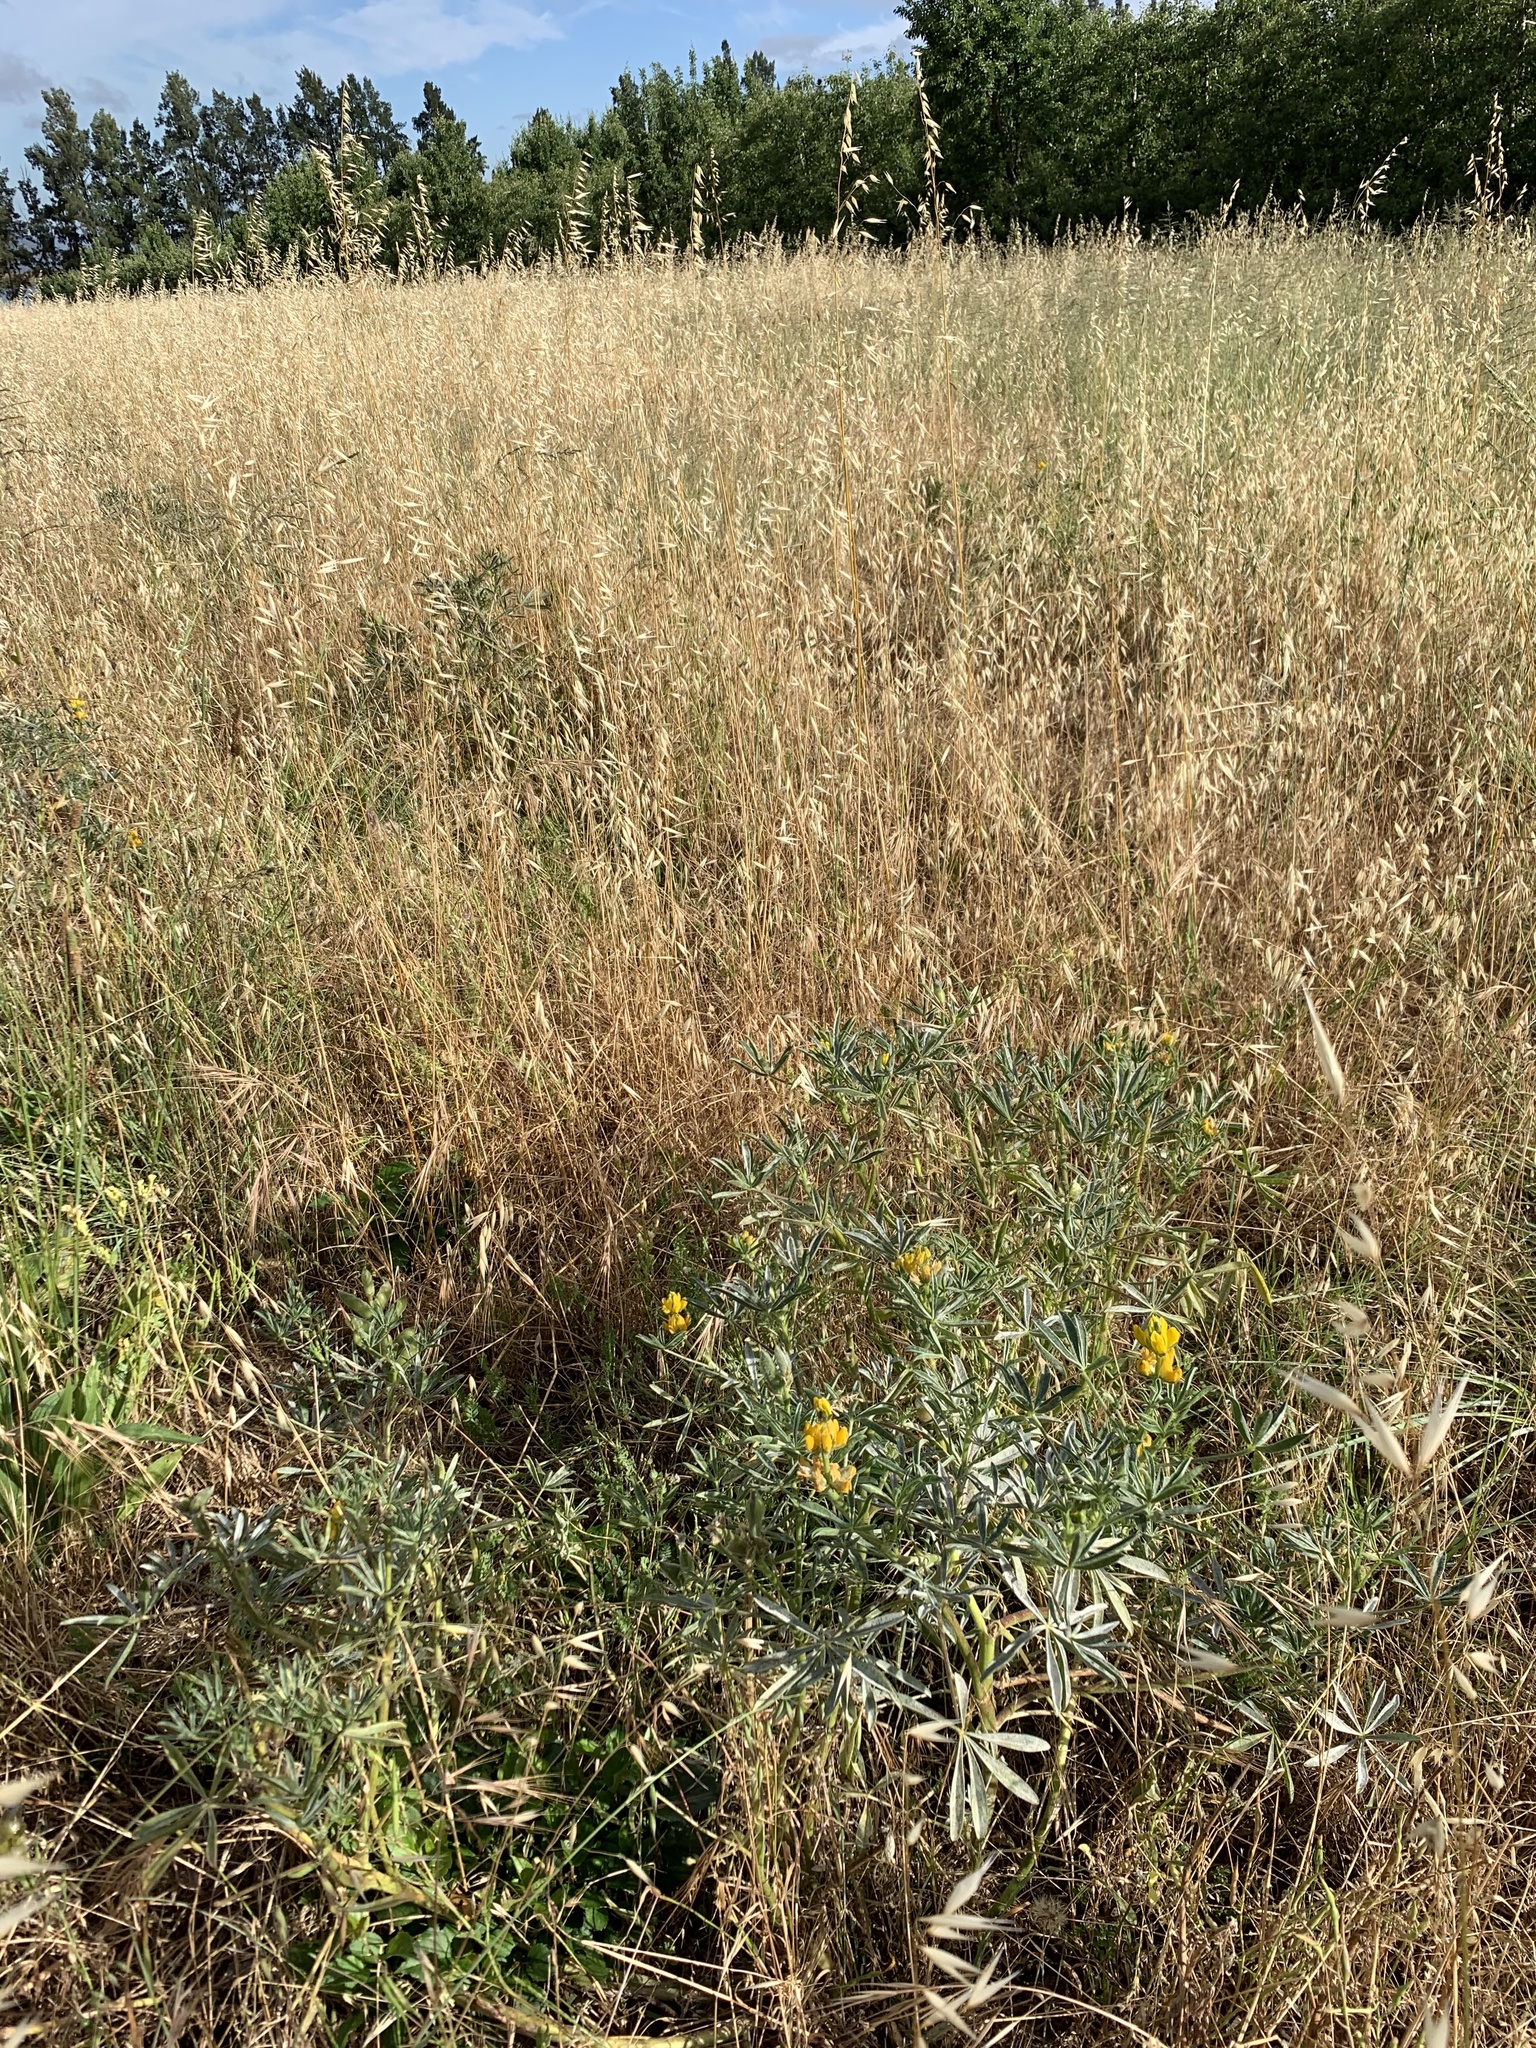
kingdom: Plantae
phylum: Tracheophyta
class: Magnoliopsida
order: Fabales
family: Fabaceae
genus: Lupinus
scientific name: Lupinus luteus
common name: European yellow lupine
